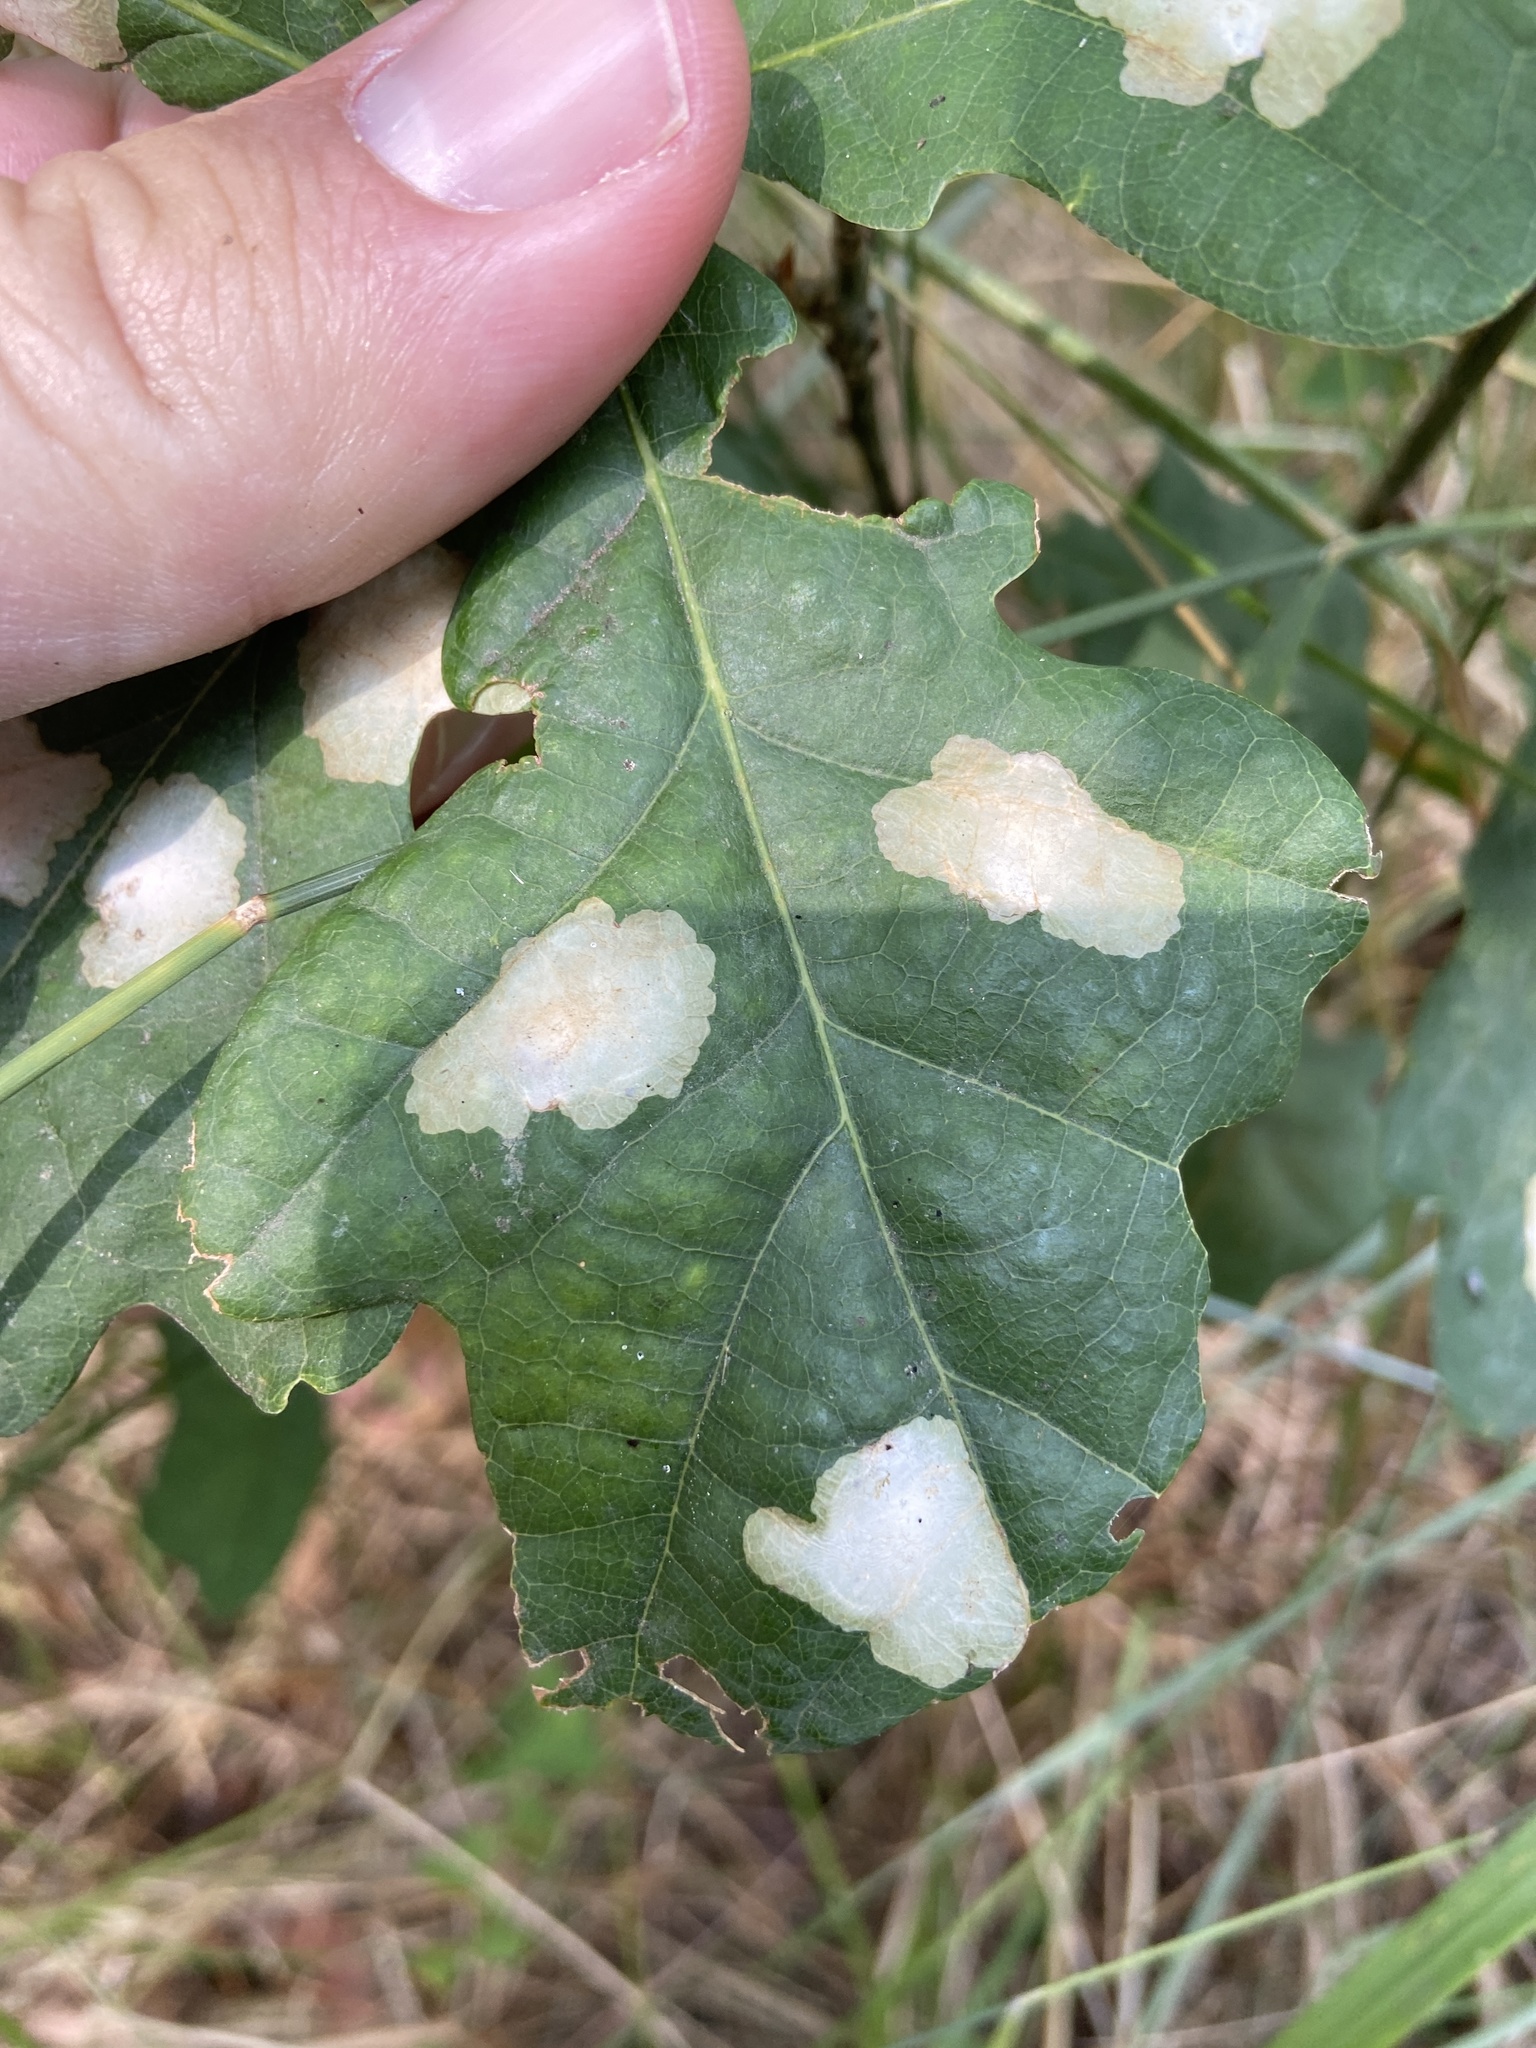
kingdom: Animalia
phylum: Arthropoda
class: Insecta
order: Lepidoptera
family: Tischeriidae
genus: Tischeria
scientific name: Tischeria ekebladella
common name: Oak carl
